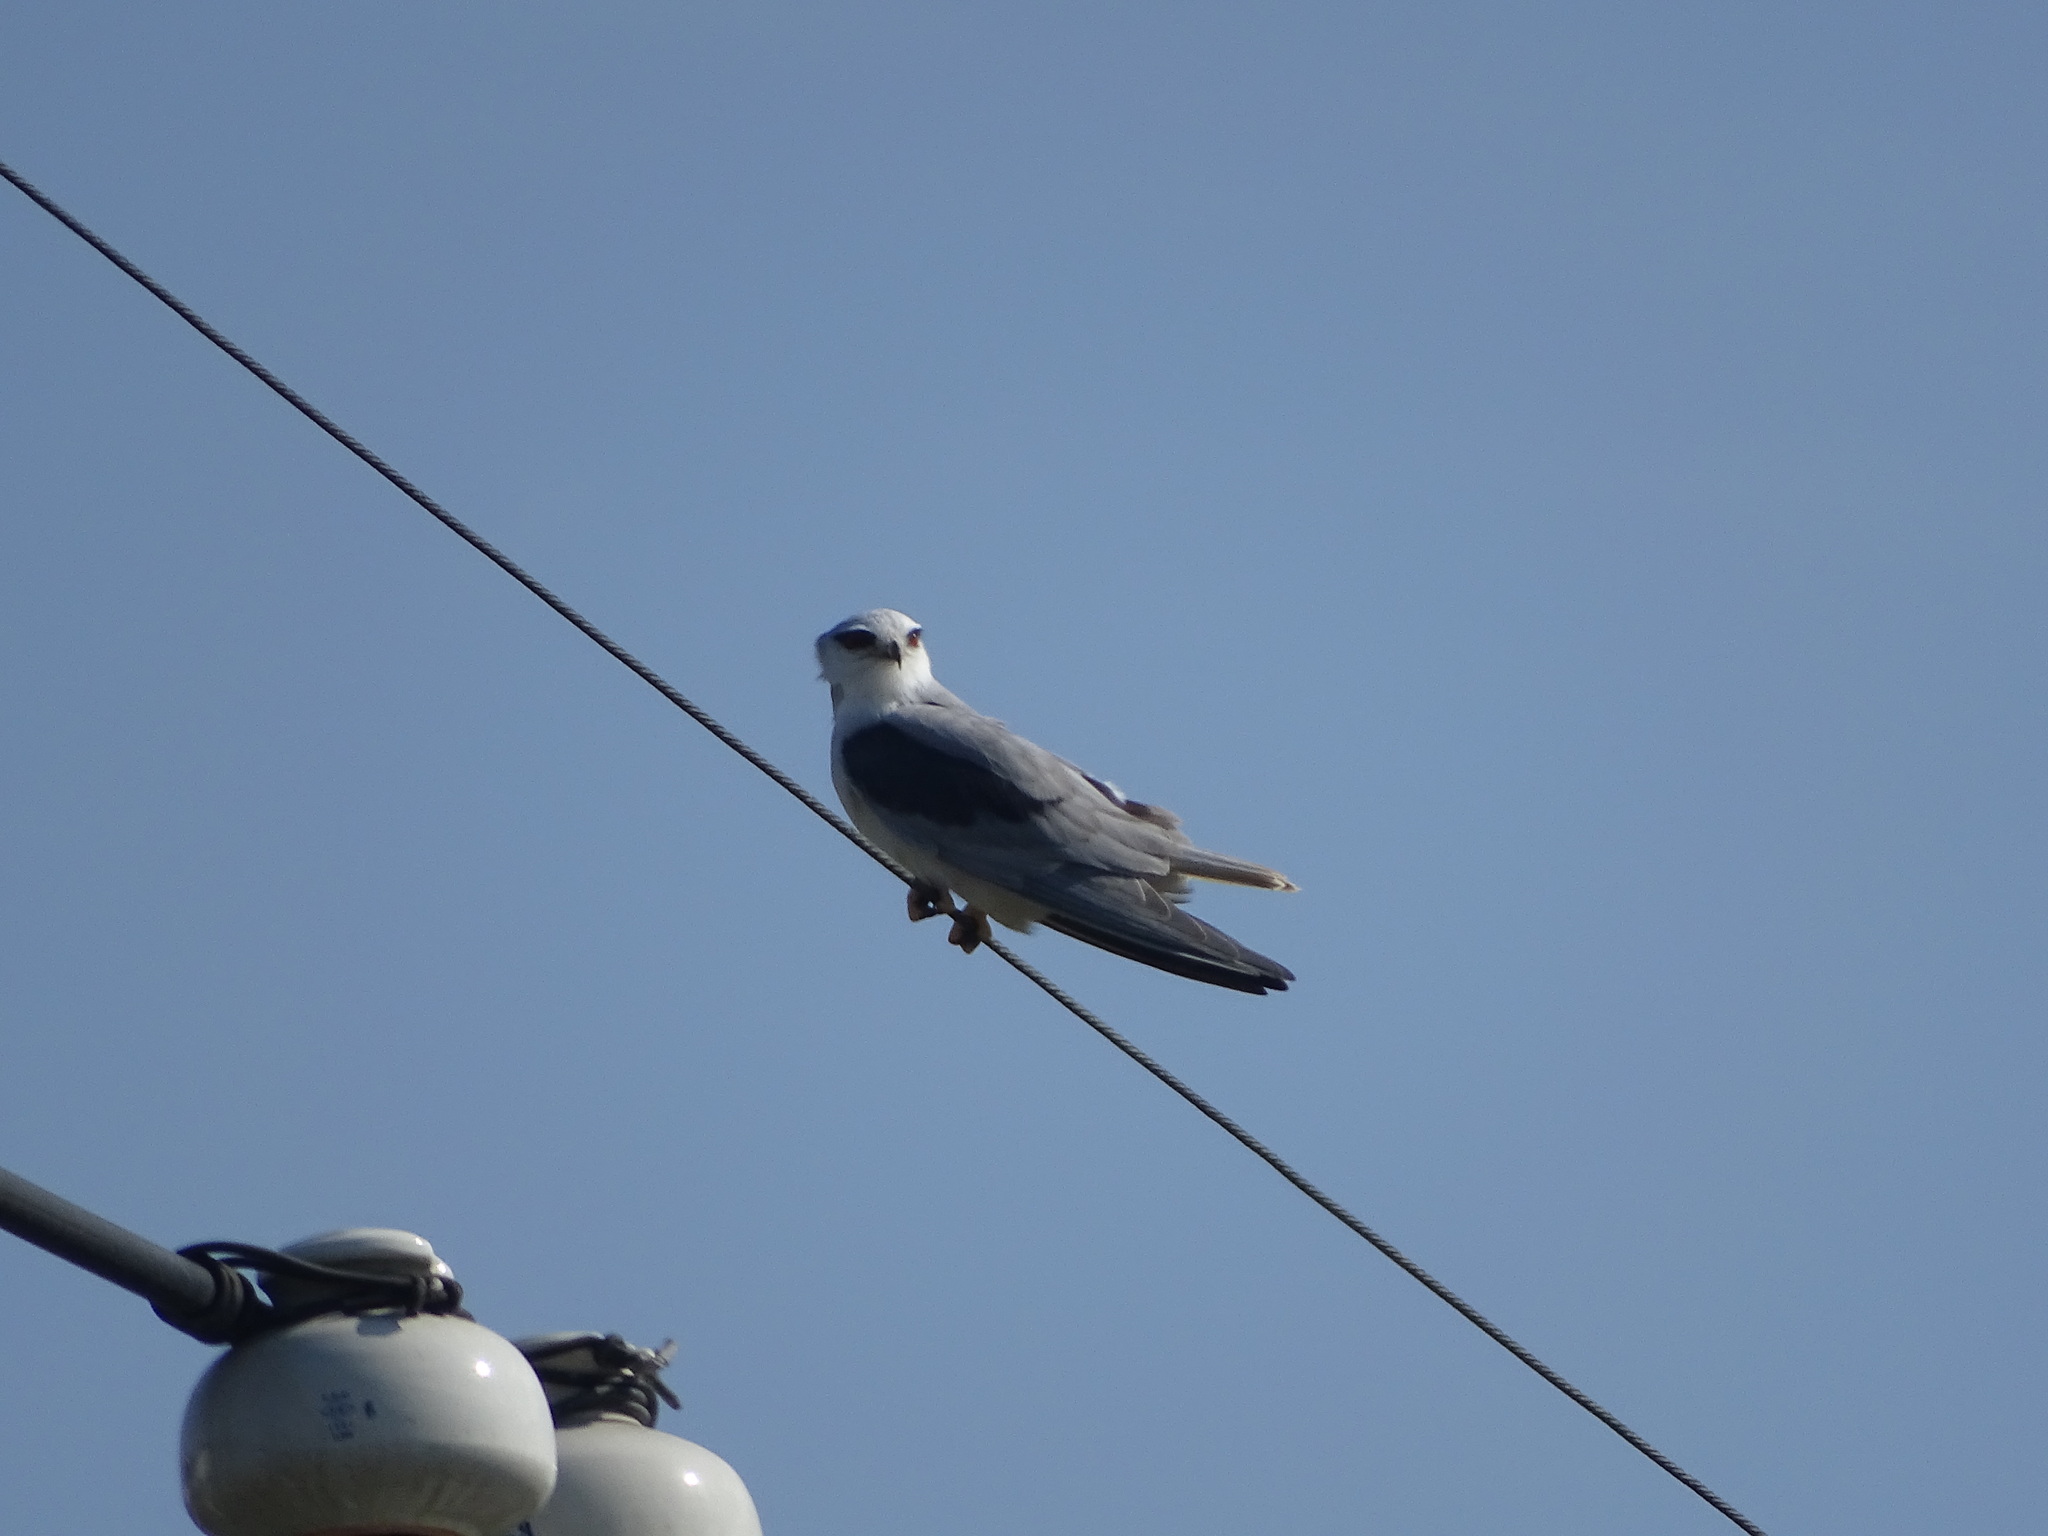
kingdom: Animalia
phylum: Chordata
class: Aves
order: Accipitriformes
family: Accipitridae
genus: Elanus
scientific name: Elanus caeruleus
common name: Black-winged kite
